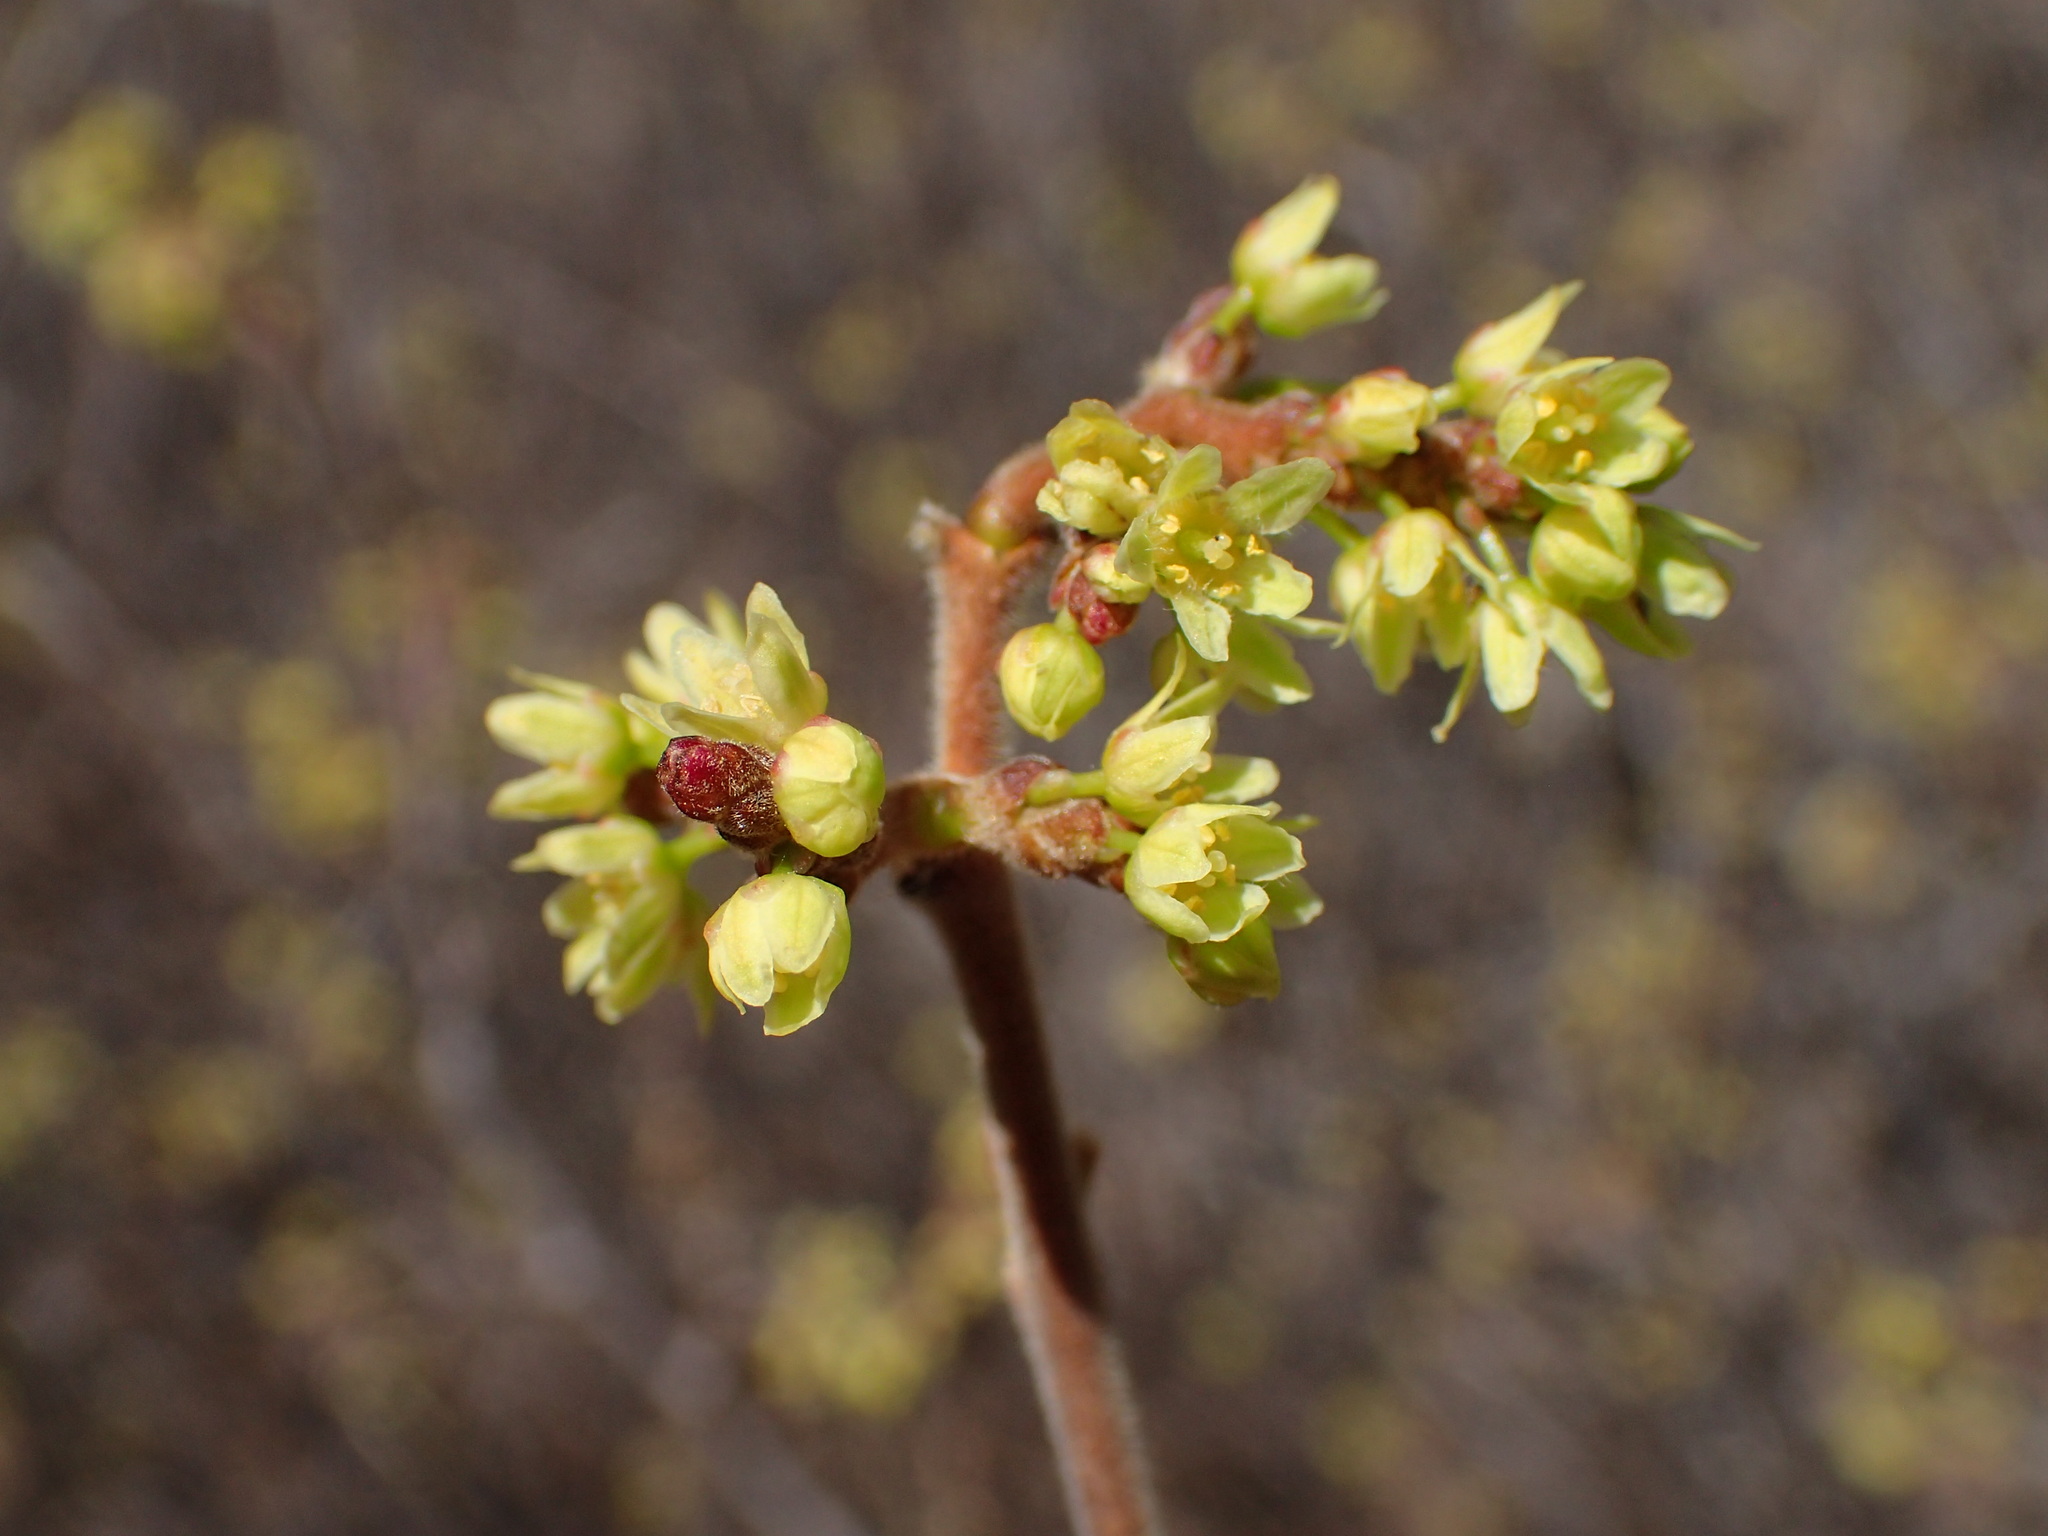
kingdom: Plantae
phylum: Tracheophyta
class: Magnoliopsida
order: Sapindales
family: Anacardiaceae
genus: Rhus
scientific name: Rhus aromatica
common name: Aromatic sumac
